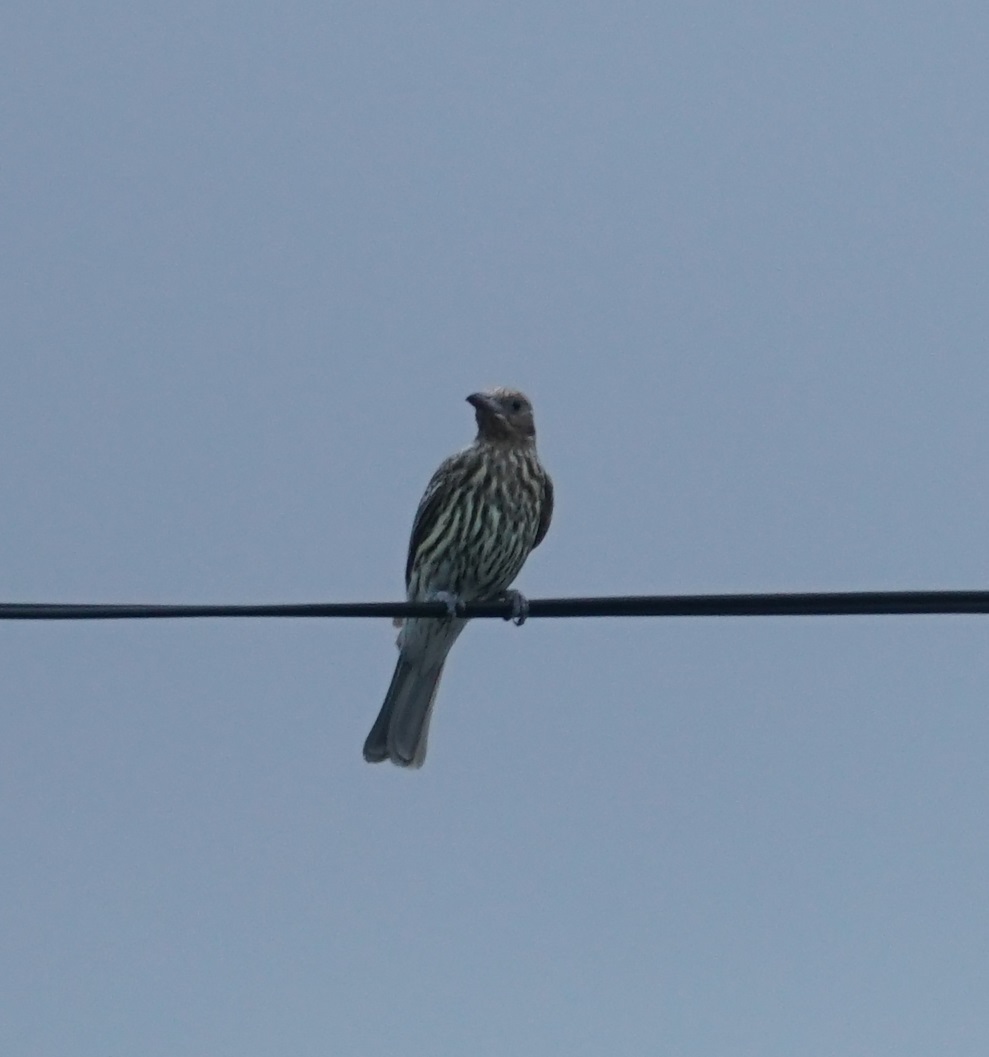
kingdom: Animalia
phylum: Chordata
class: Aves
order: Passeriformes
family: Oriolidae
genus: Sphecotheres
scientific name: Sphecotheres vieilloti
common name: Australasian figbird
